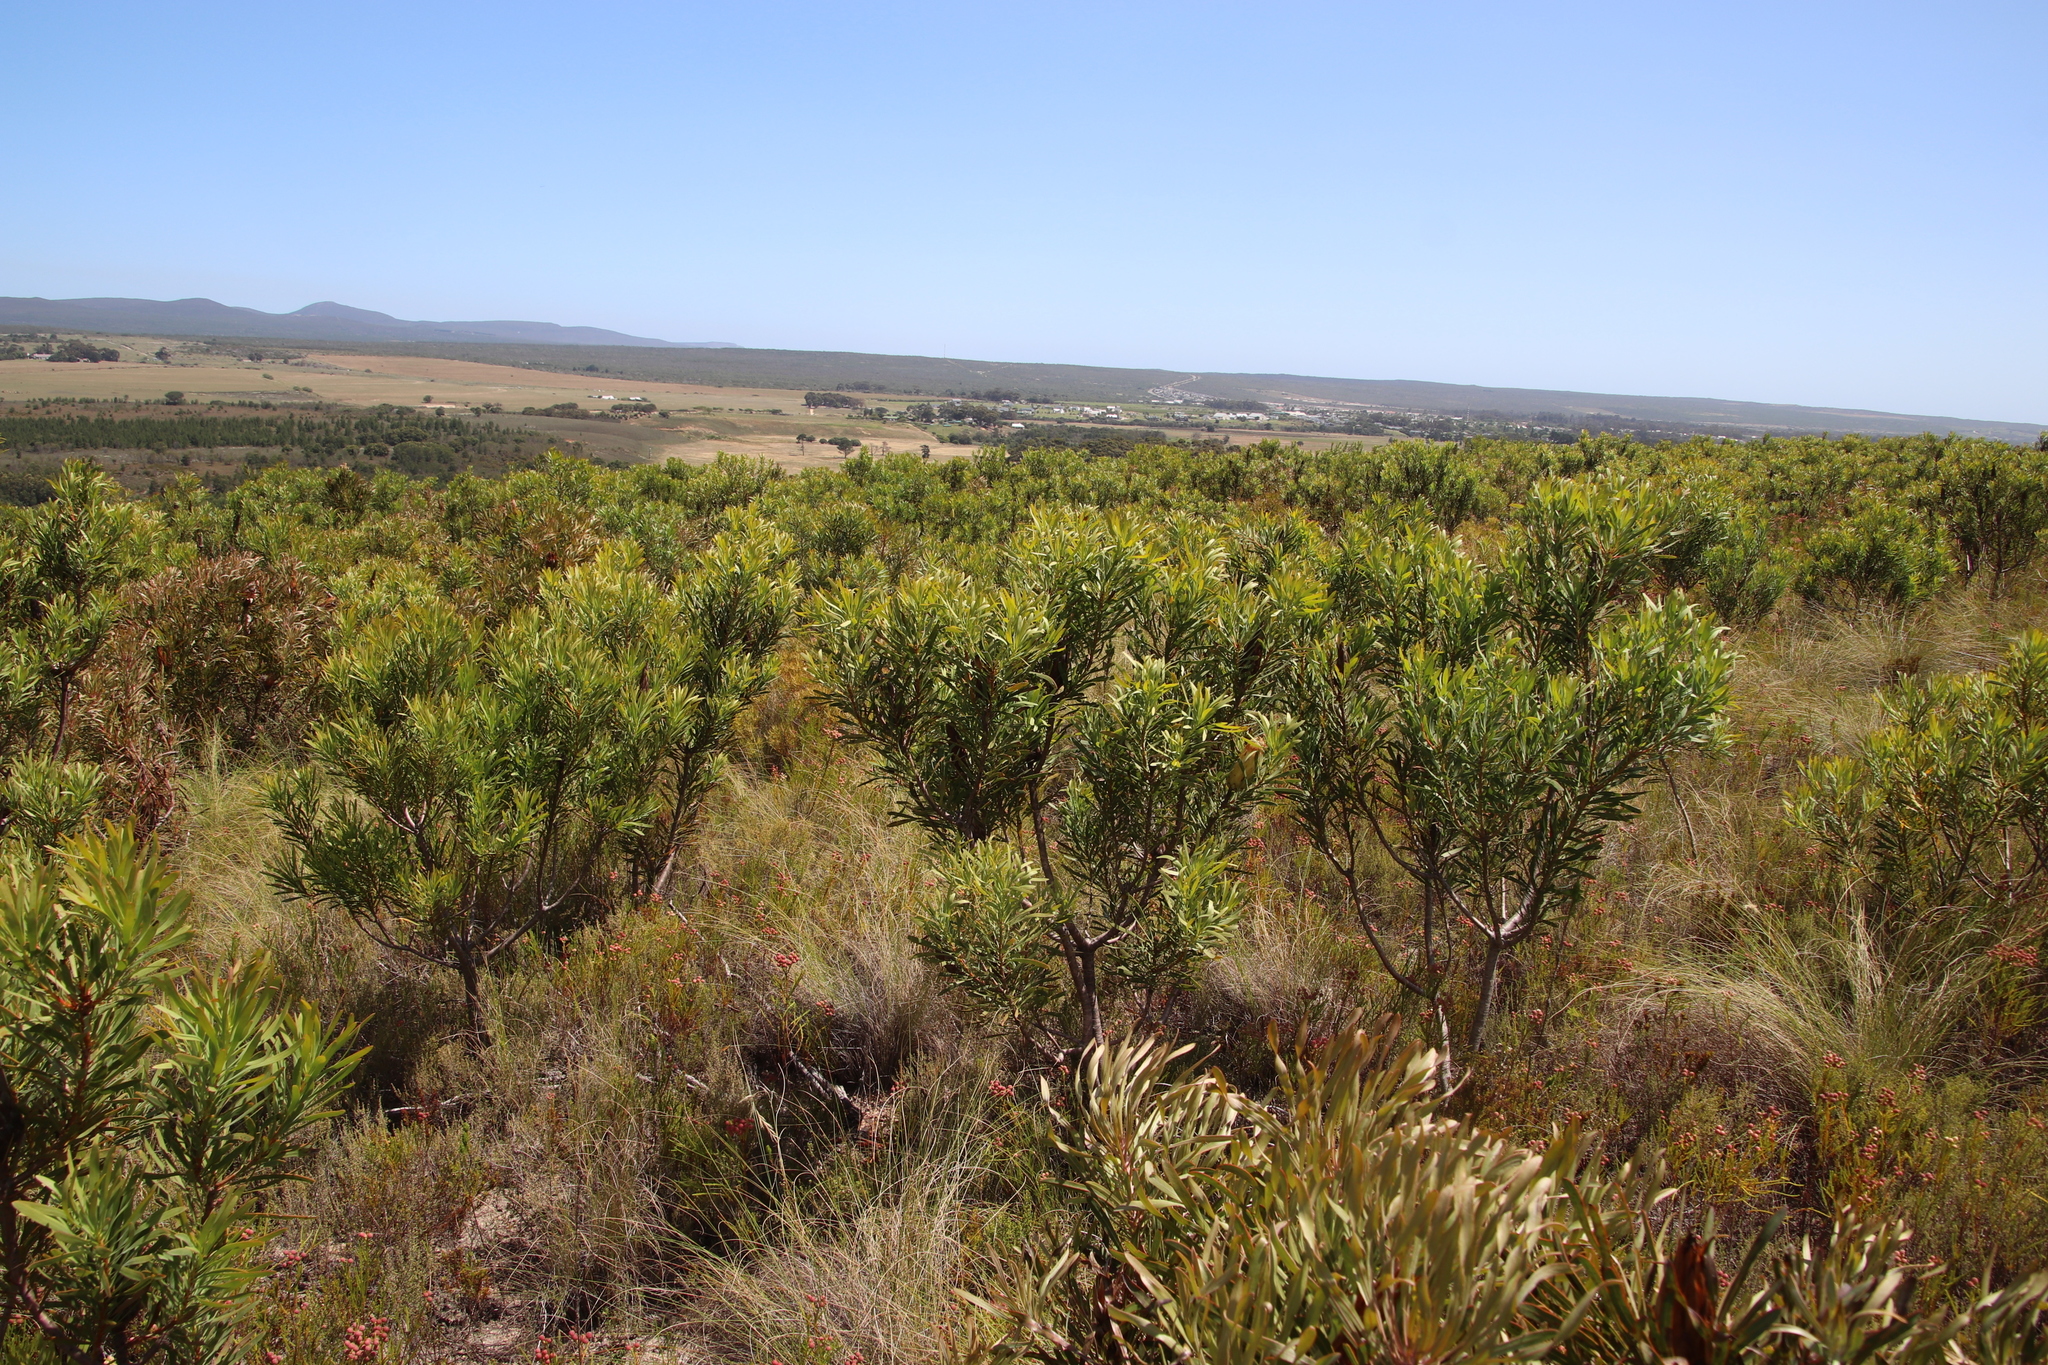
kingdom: Plantae
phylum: Tracheophyta
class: Magnoliopsida
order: Proteales
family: Proteaceae
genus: Protea
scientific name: Protea repens
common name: Sugarbush
